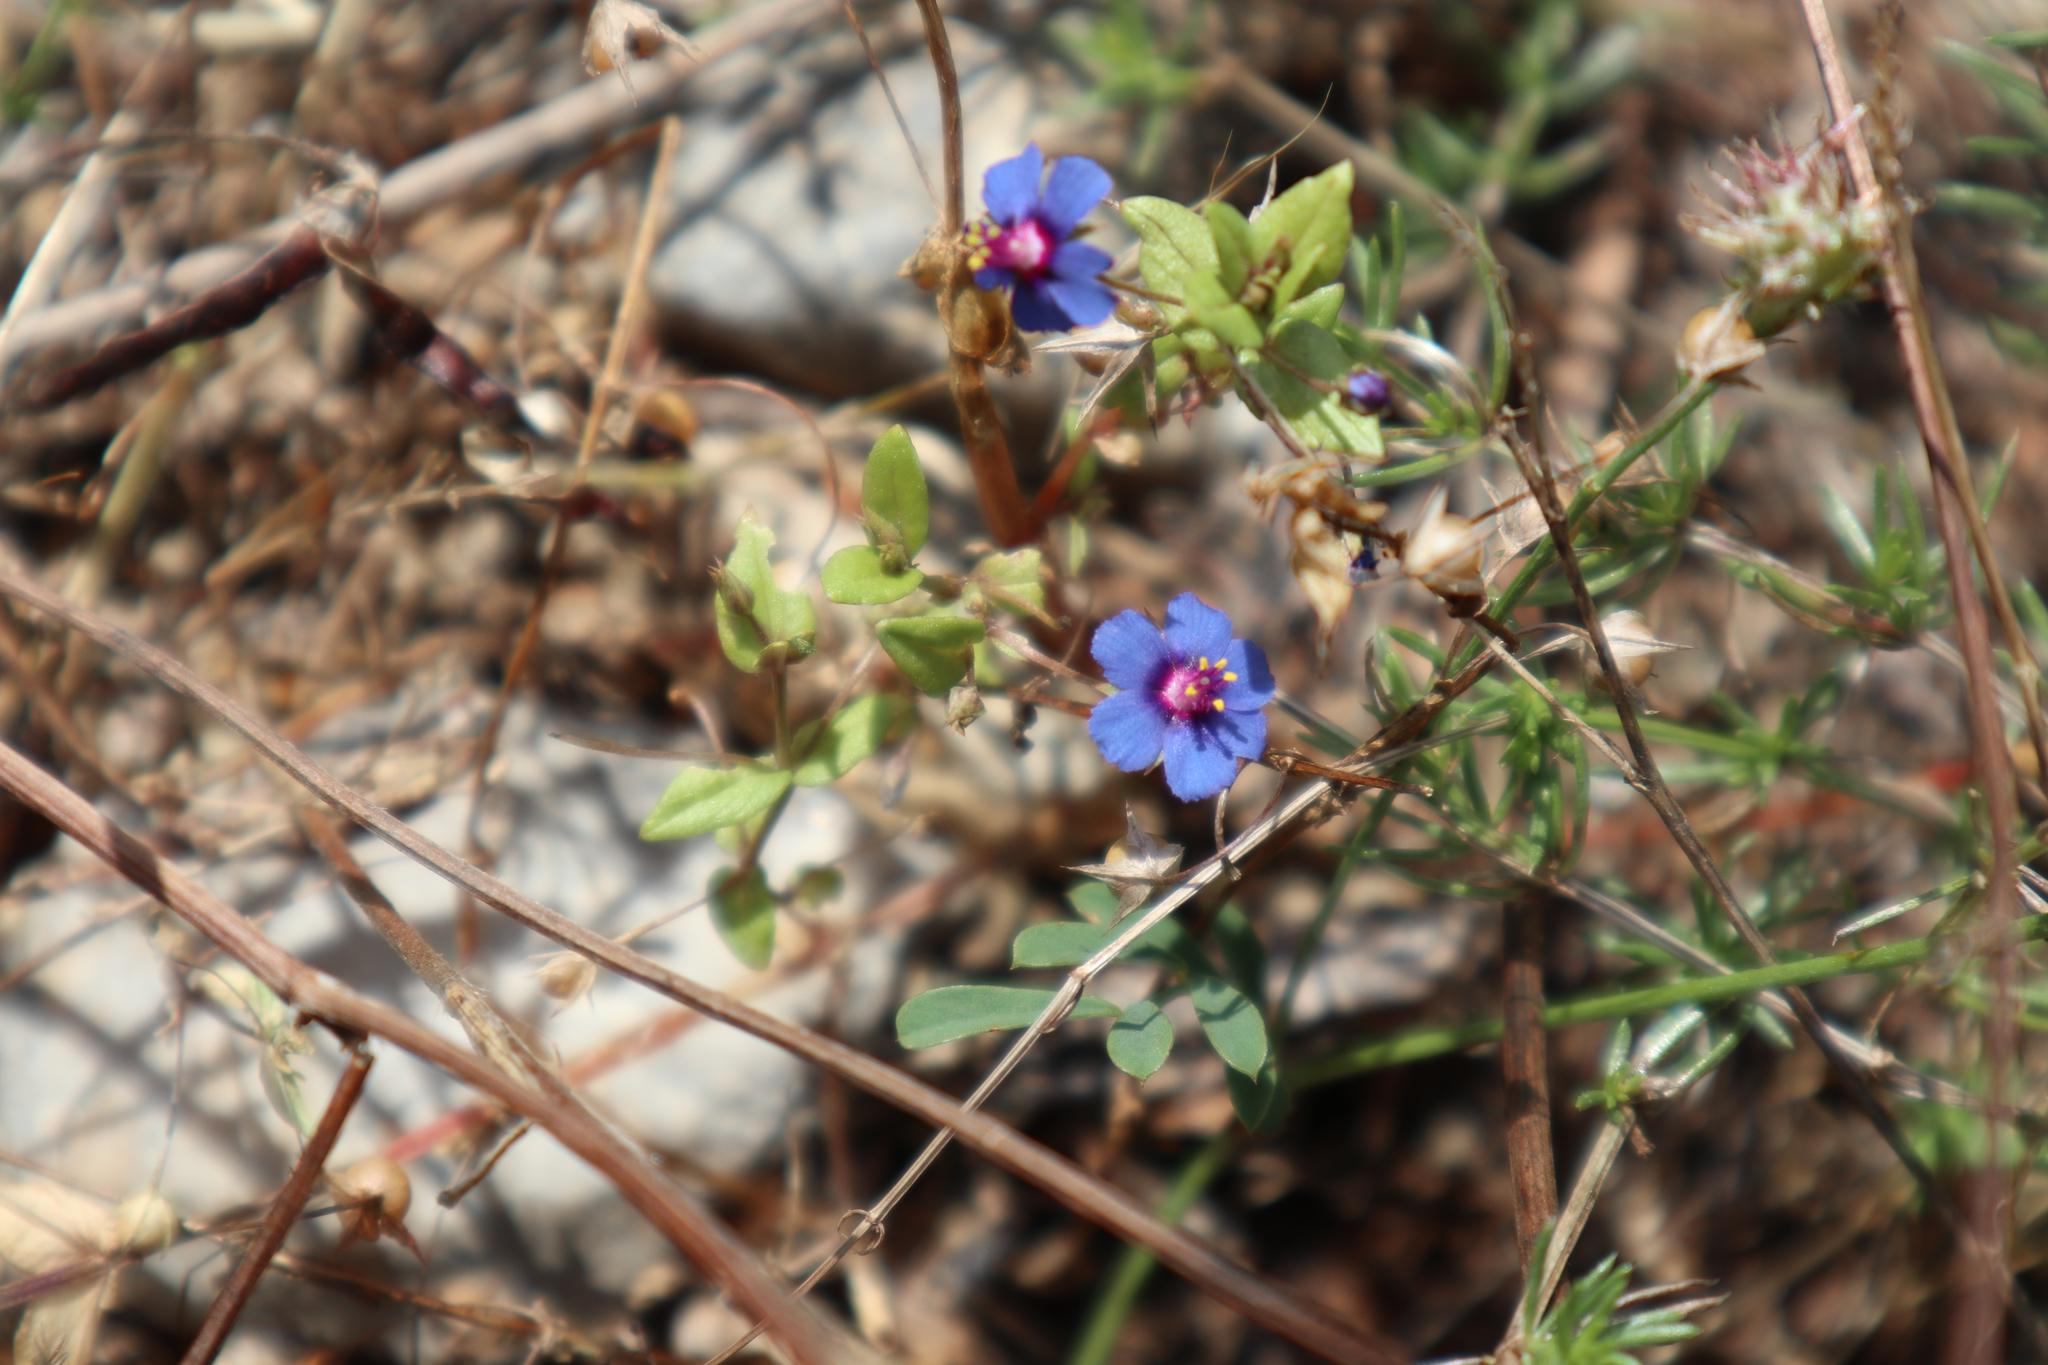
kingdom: Plantae
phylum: Tracheophyta
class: Magnoliopsida
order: Ericales
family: Primulaceae
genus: Lysimachia
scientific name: Lysimachia foemina
